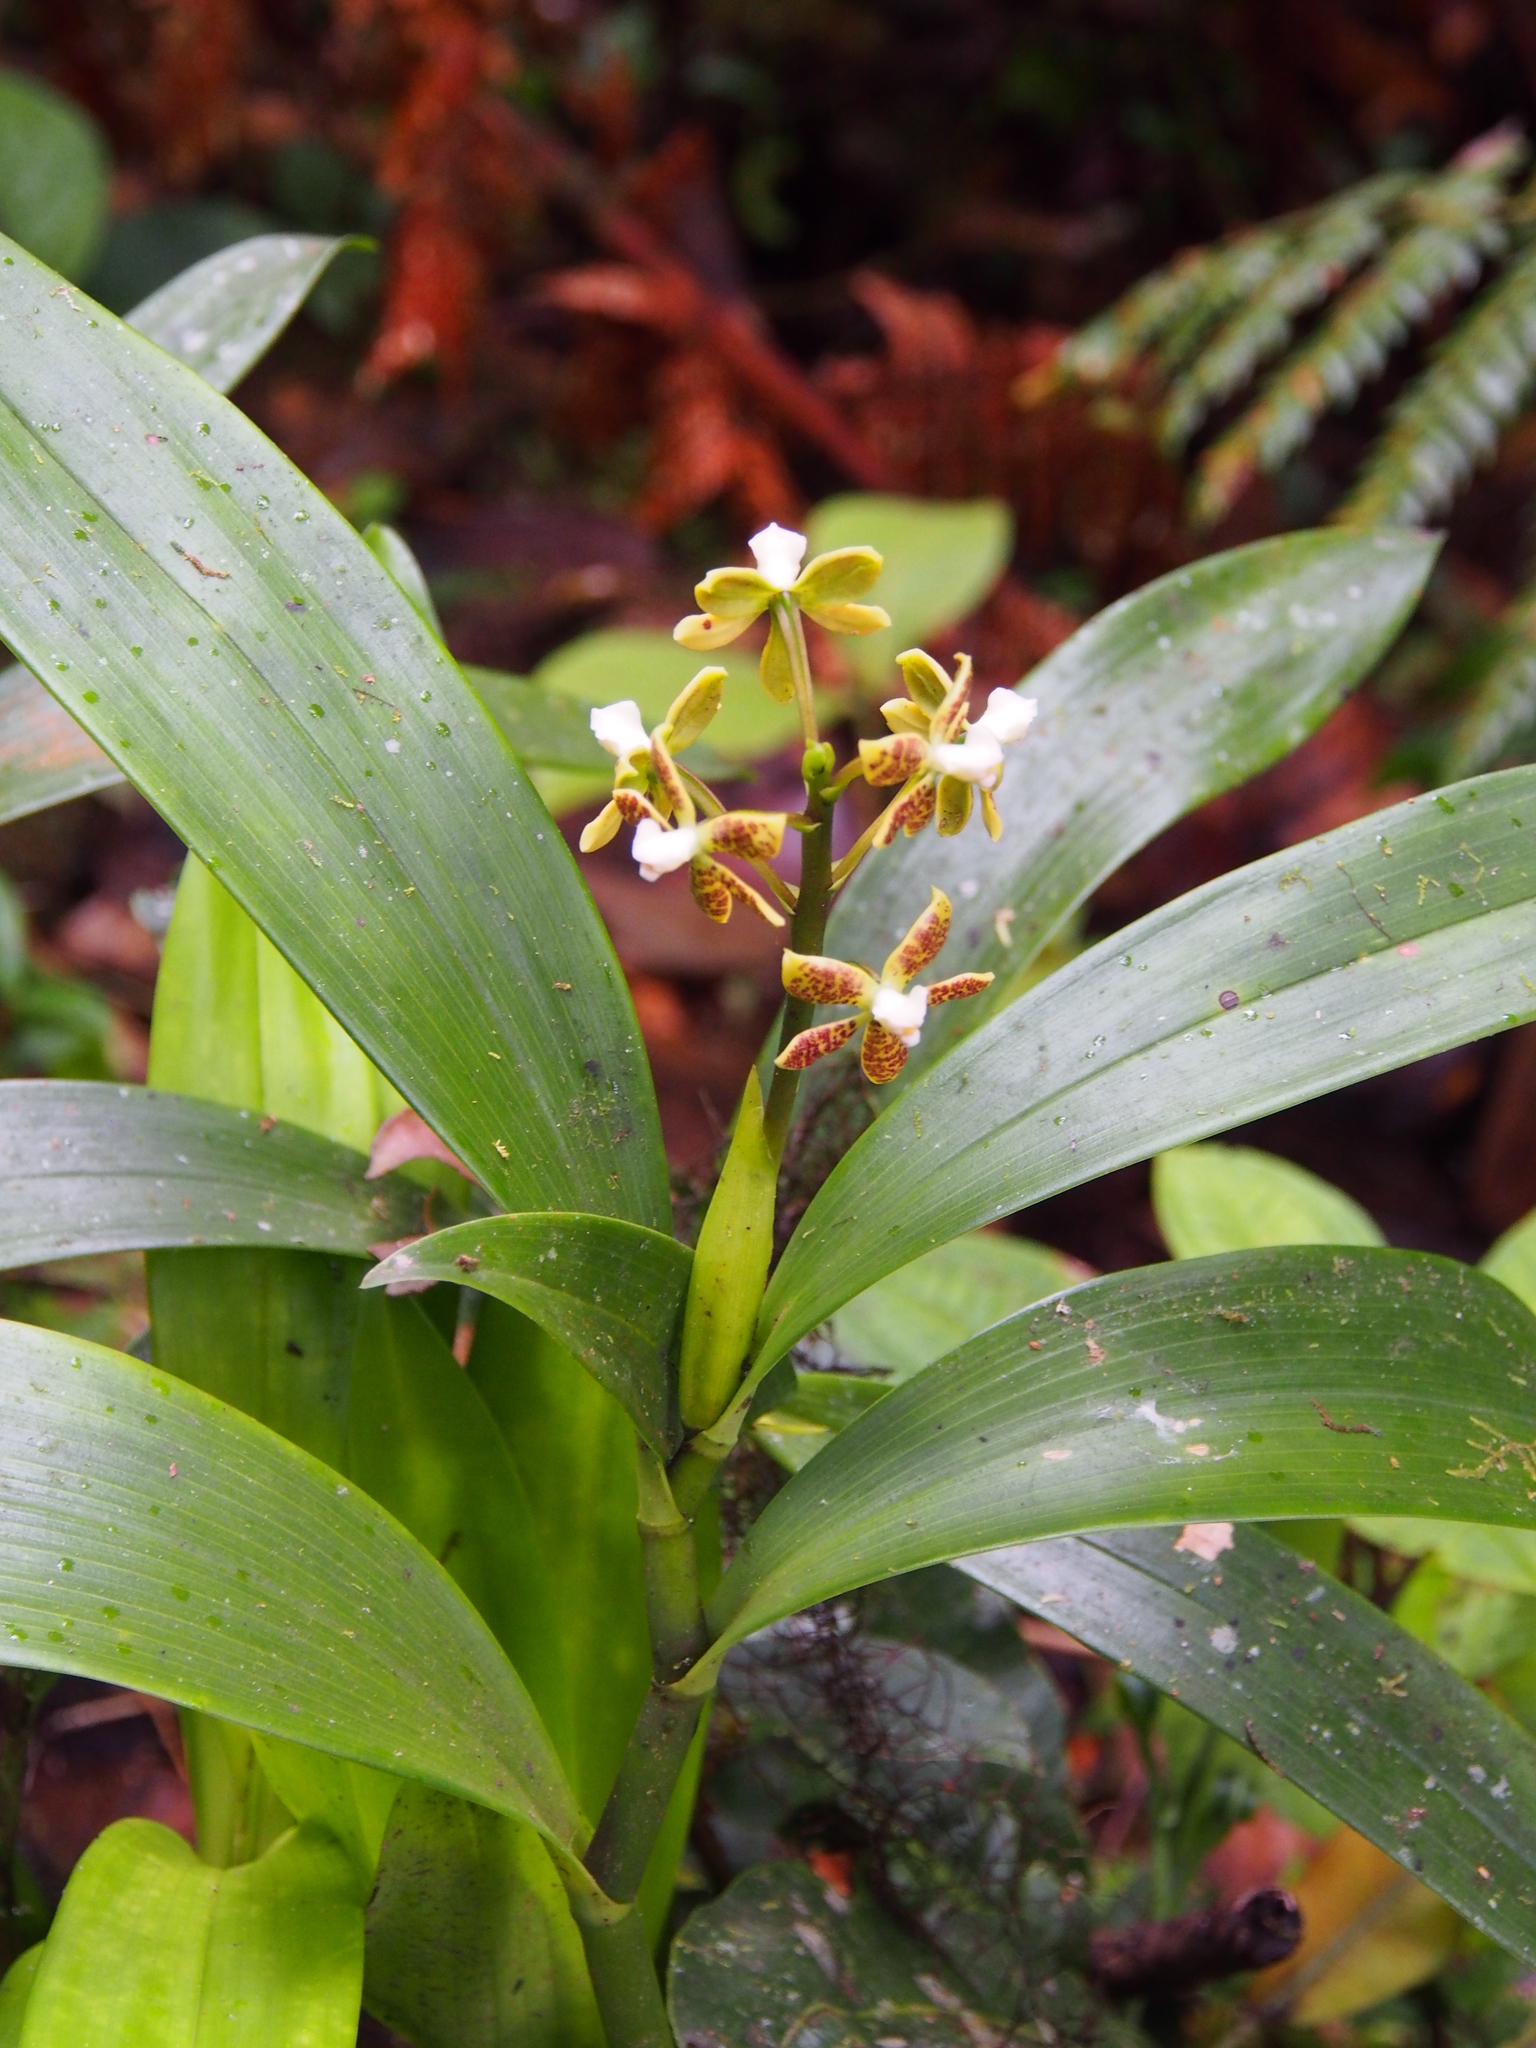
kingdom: Plantae
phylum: Tracheophyta
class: Liliopsida
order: Asparagales
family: Orchidaceae
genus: Prosthechea
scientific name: Prosthechea vespa
